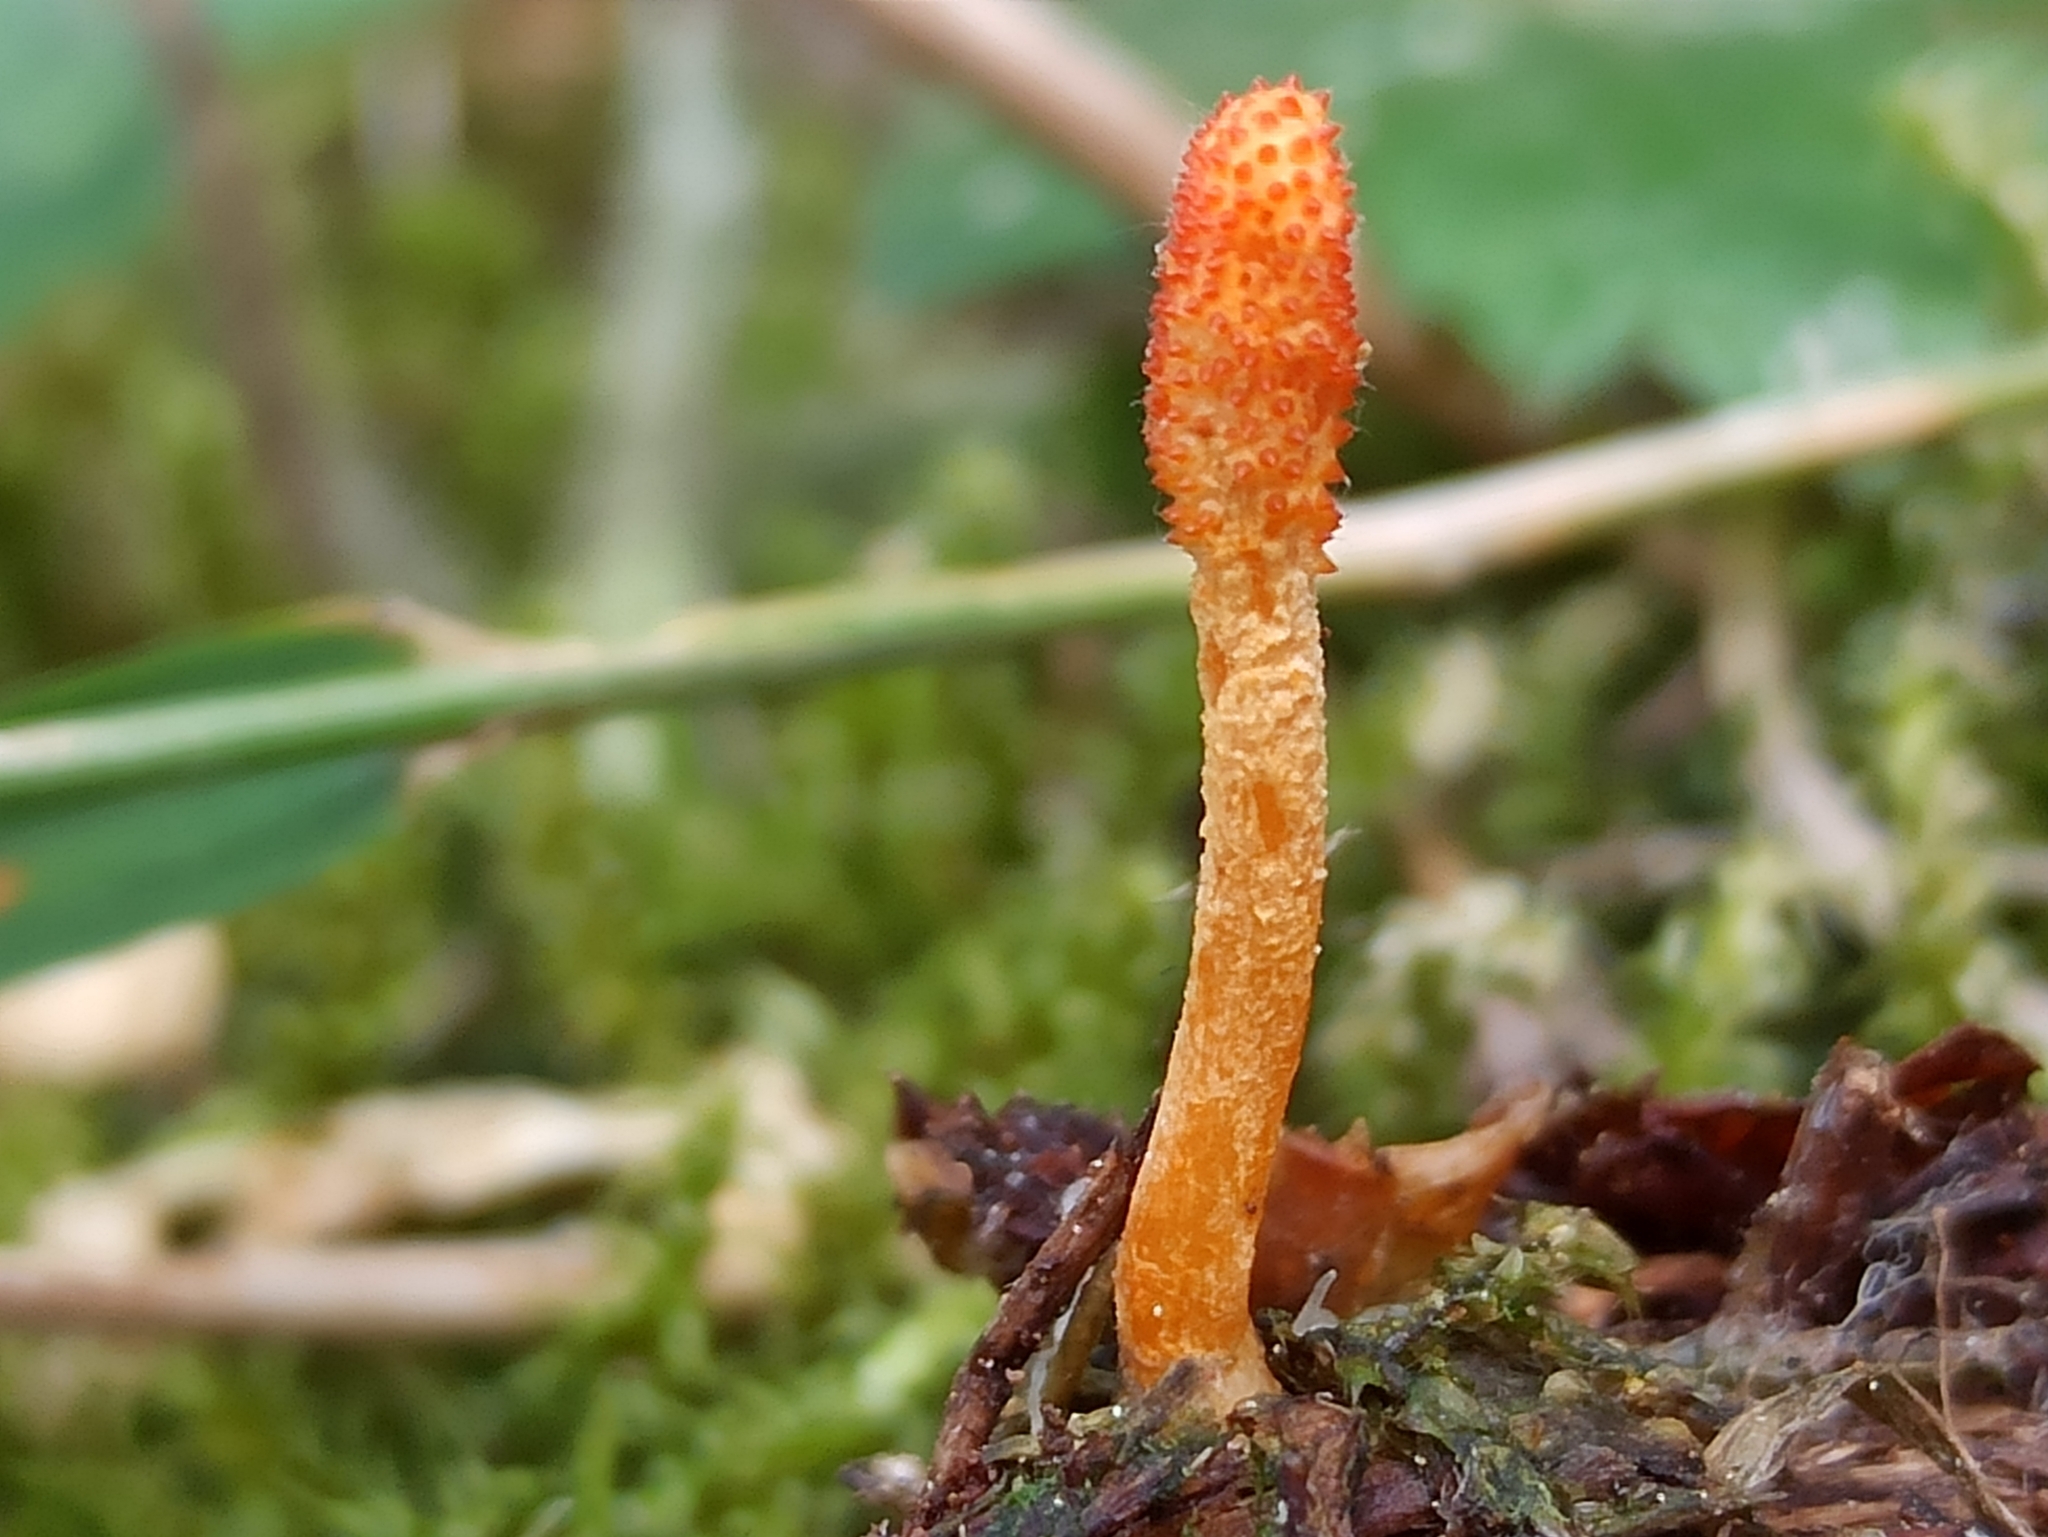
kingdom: Fungi
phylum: Ascomycota
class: Sordariomycetes
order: Hypocreales
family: Cordycipitaceae
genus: Cordyceps
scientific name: Cordyceps militaris
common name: Scarlet caterpillar fungus
